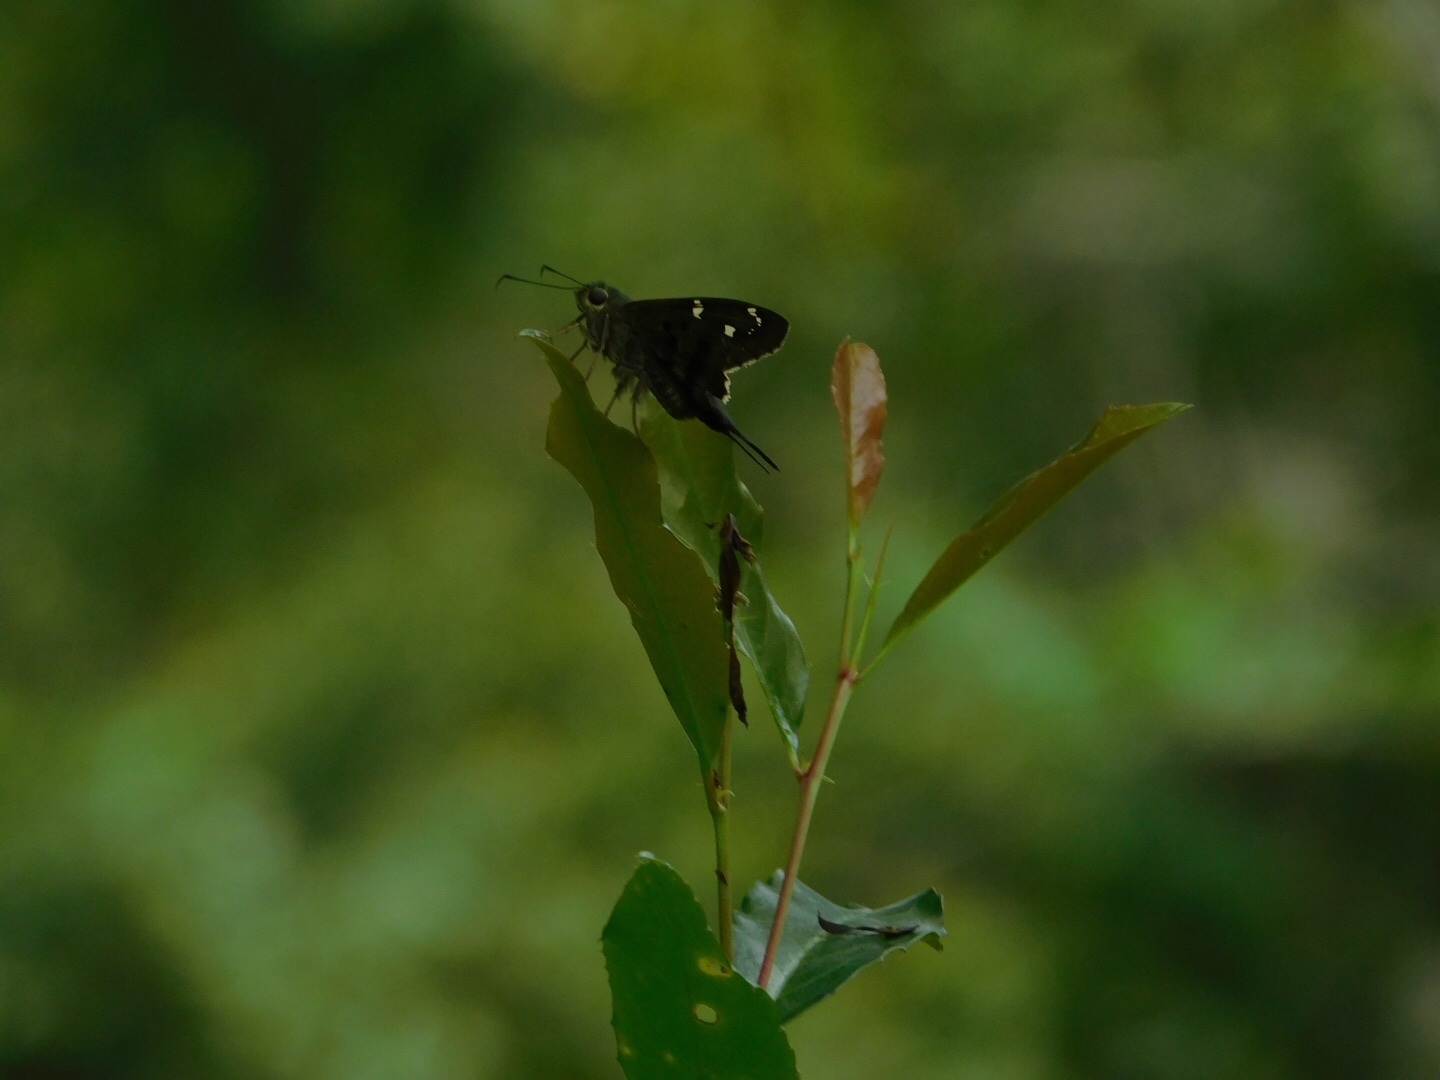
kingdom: Animalia
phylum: Arthropoda
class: Insecta
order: Lepidoptera
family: Hesperiidae
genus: Urbanus
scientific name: Urbanus proteus
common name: Long-tailed skipper
